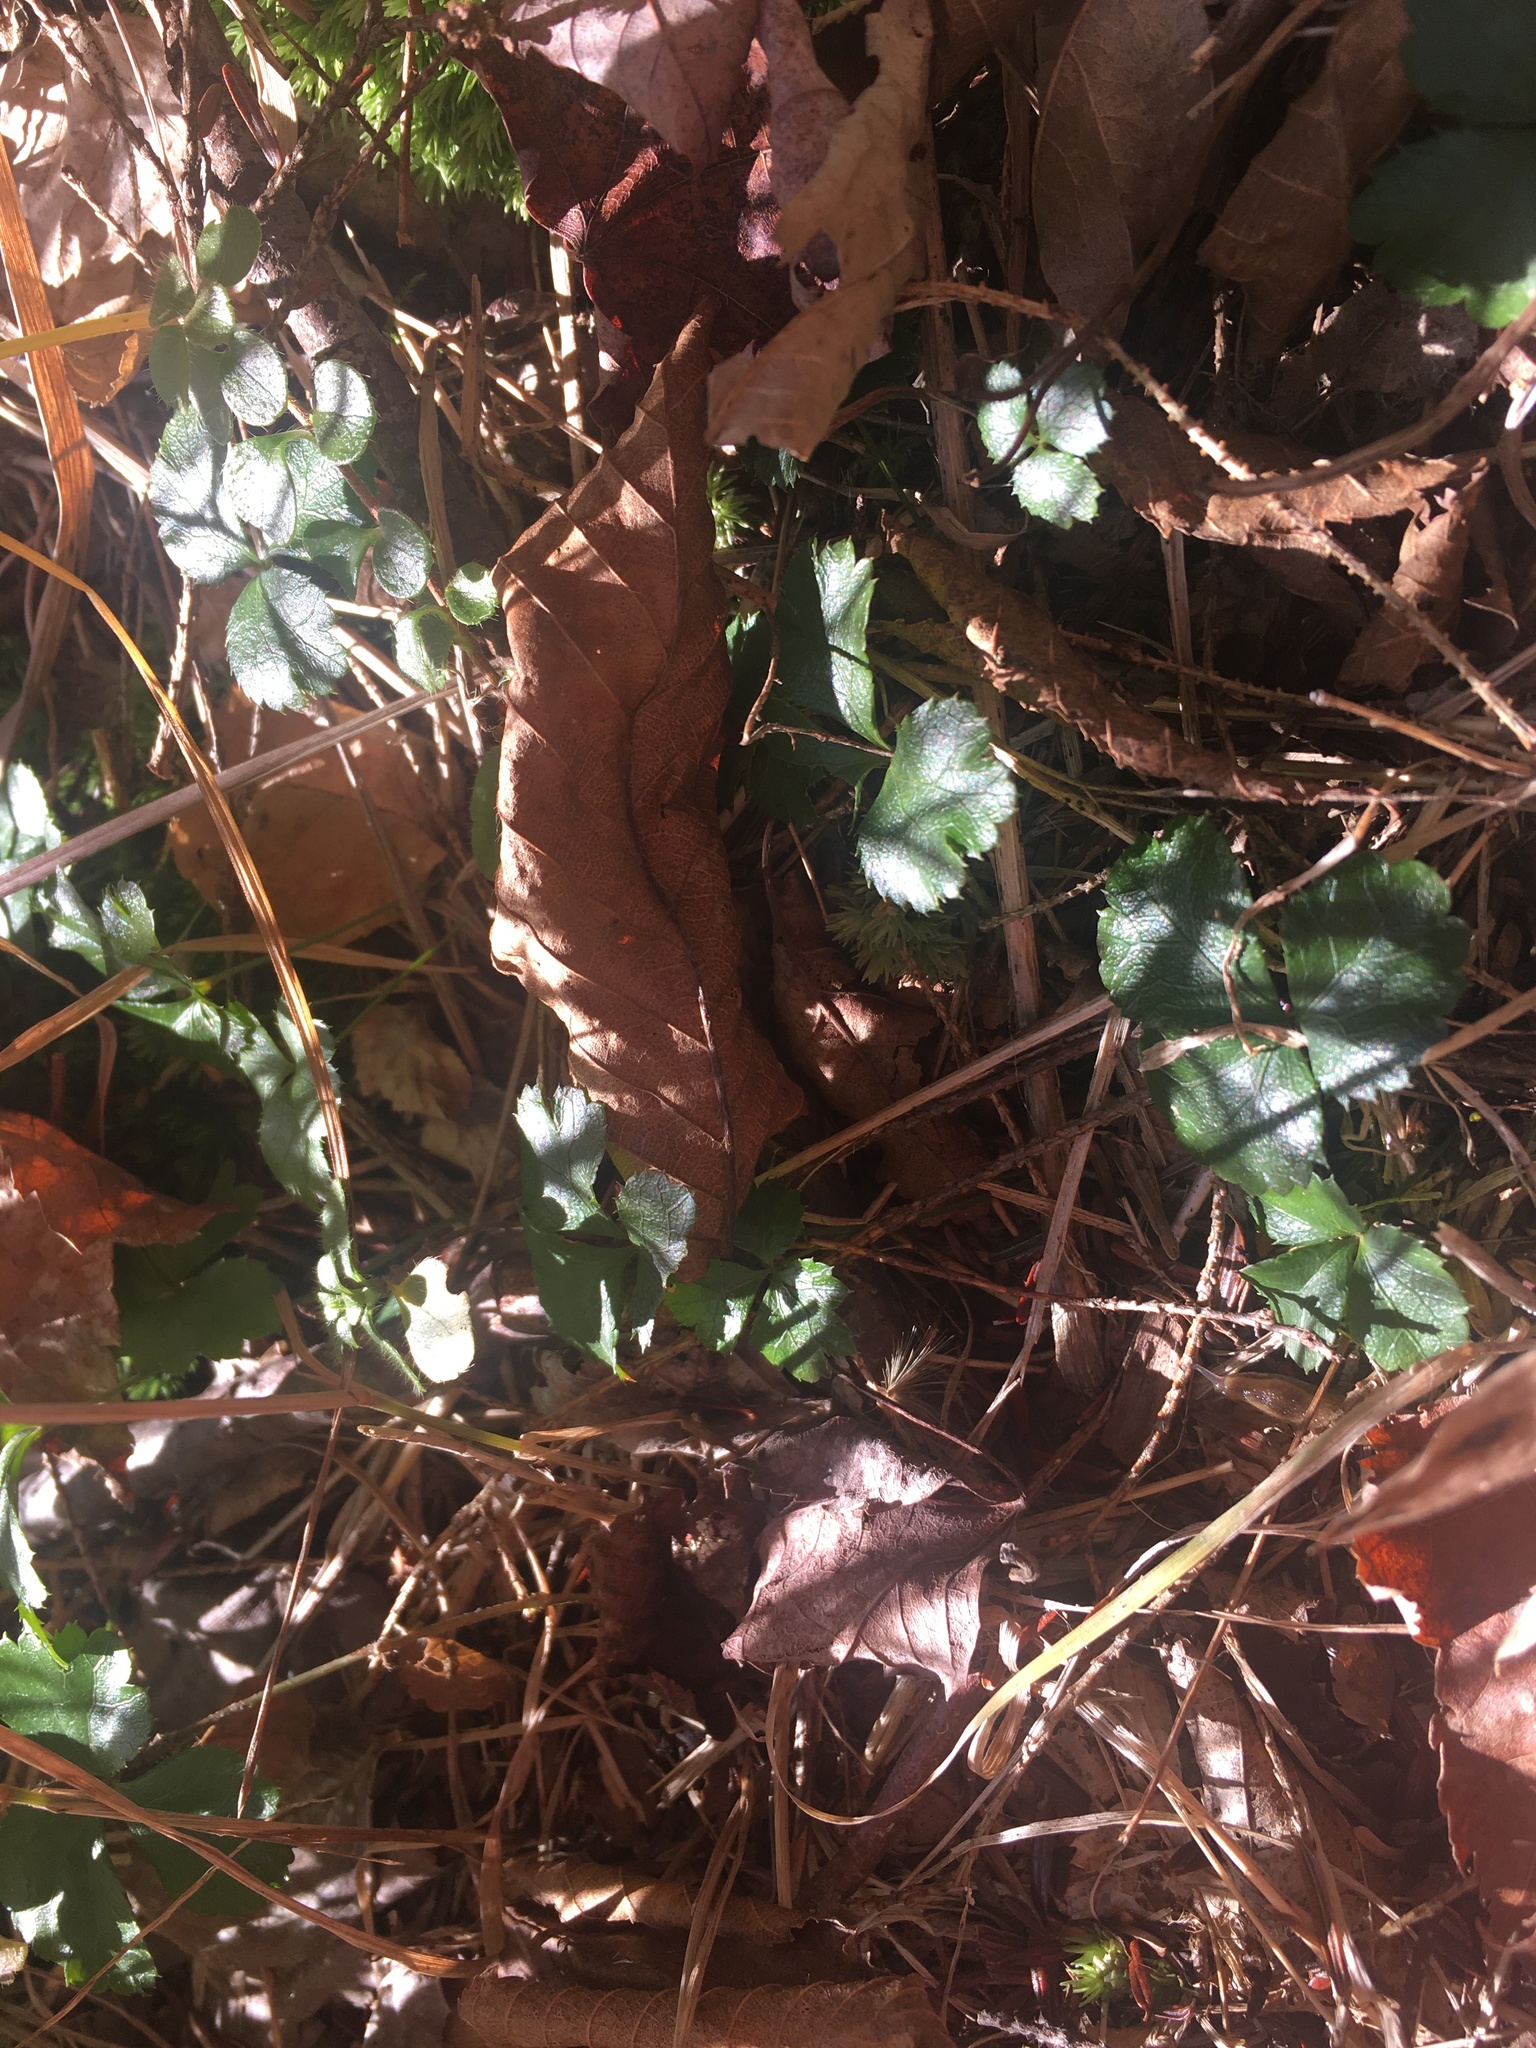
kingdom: Plantae
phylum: Tracheophyta
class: Magnoliopsida
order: Ranunculales
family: Ranunculaceae
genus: Coptis
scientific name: Coptis trifolia
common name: Canker-root
